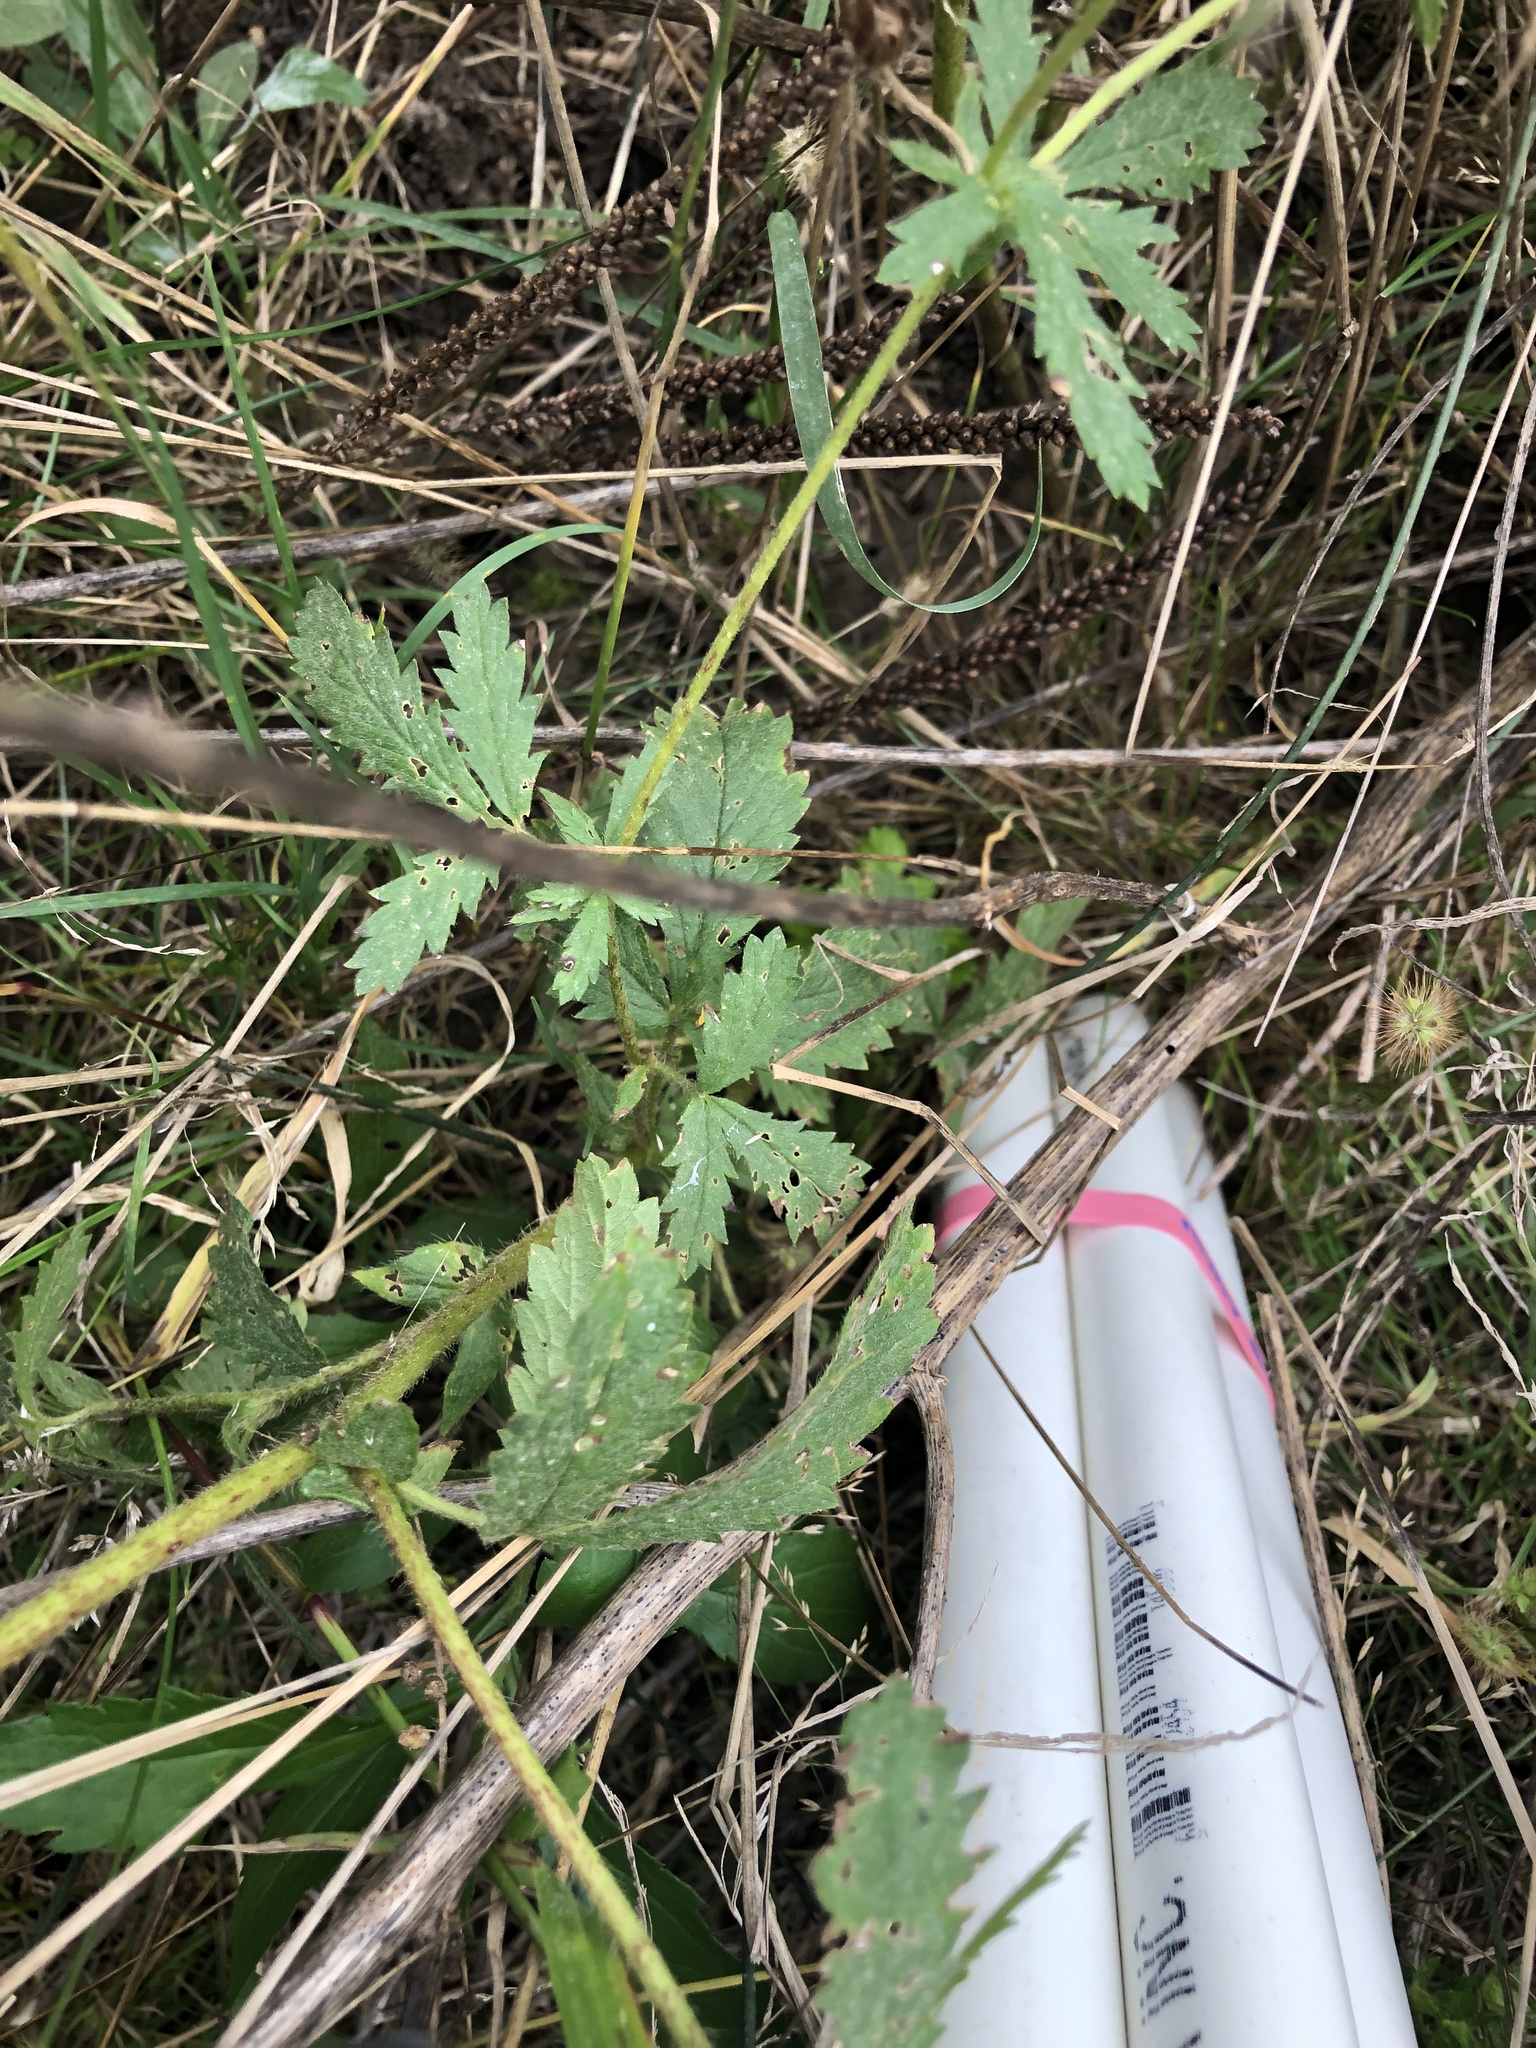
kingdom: Plantae
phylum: Tracheophyta
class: Magnoliopsida
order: Rosales
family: Rosaceae
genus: Potentilla
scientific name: Potentilla norvegica
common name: Ternate-leaved cinquefoil
